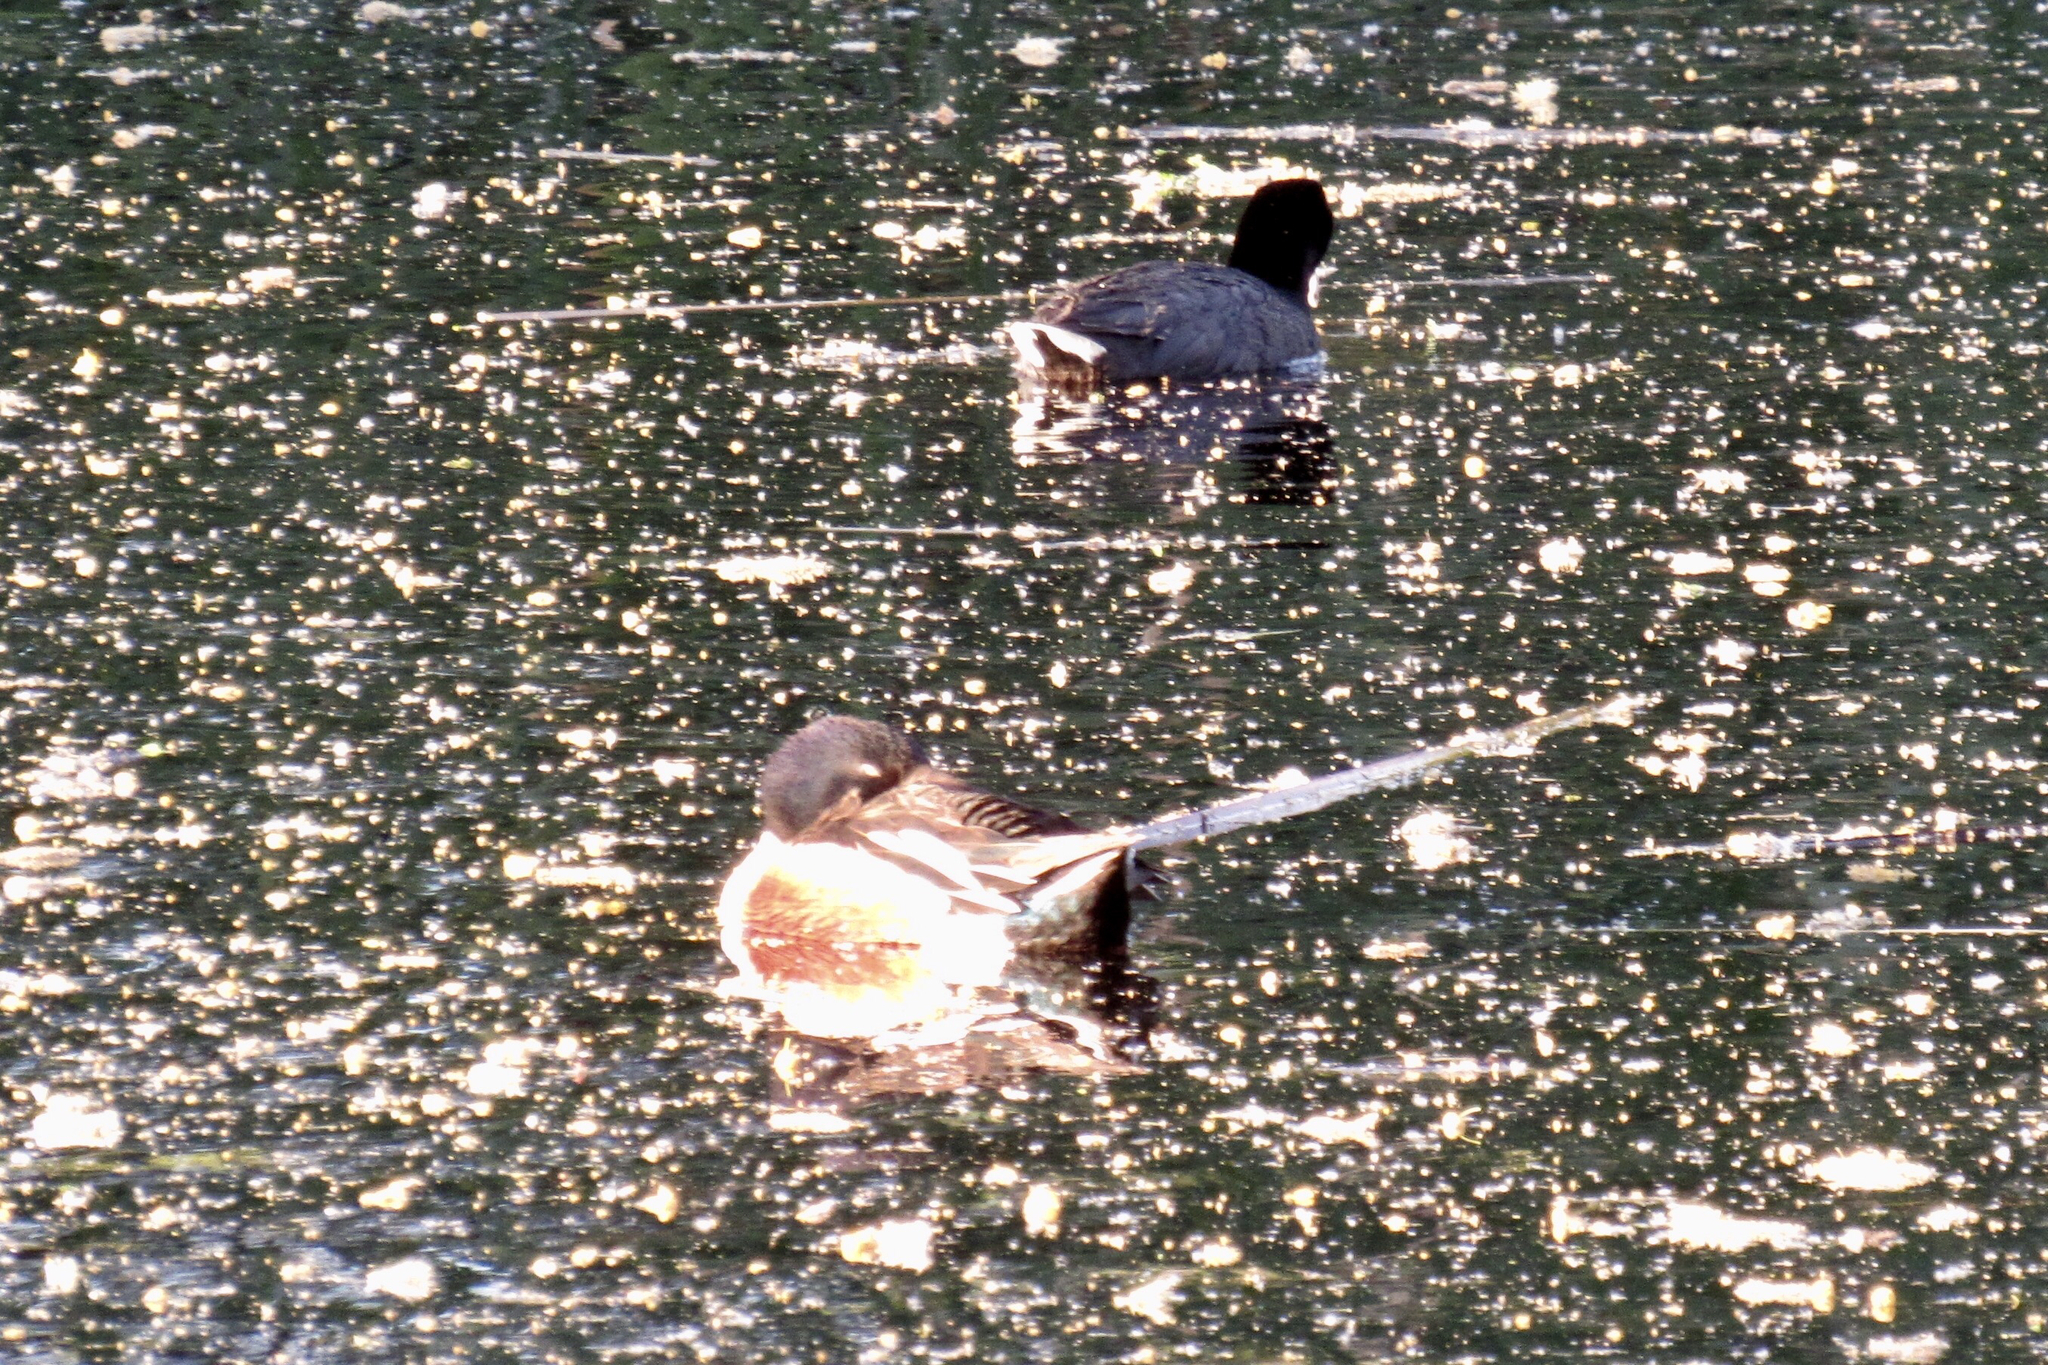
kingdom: Animalia
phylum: Chordata
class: Aves
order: Anseriformes
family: Anatidae
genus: Spatula
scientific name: Spatula clypeata
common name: Northern shoveler
